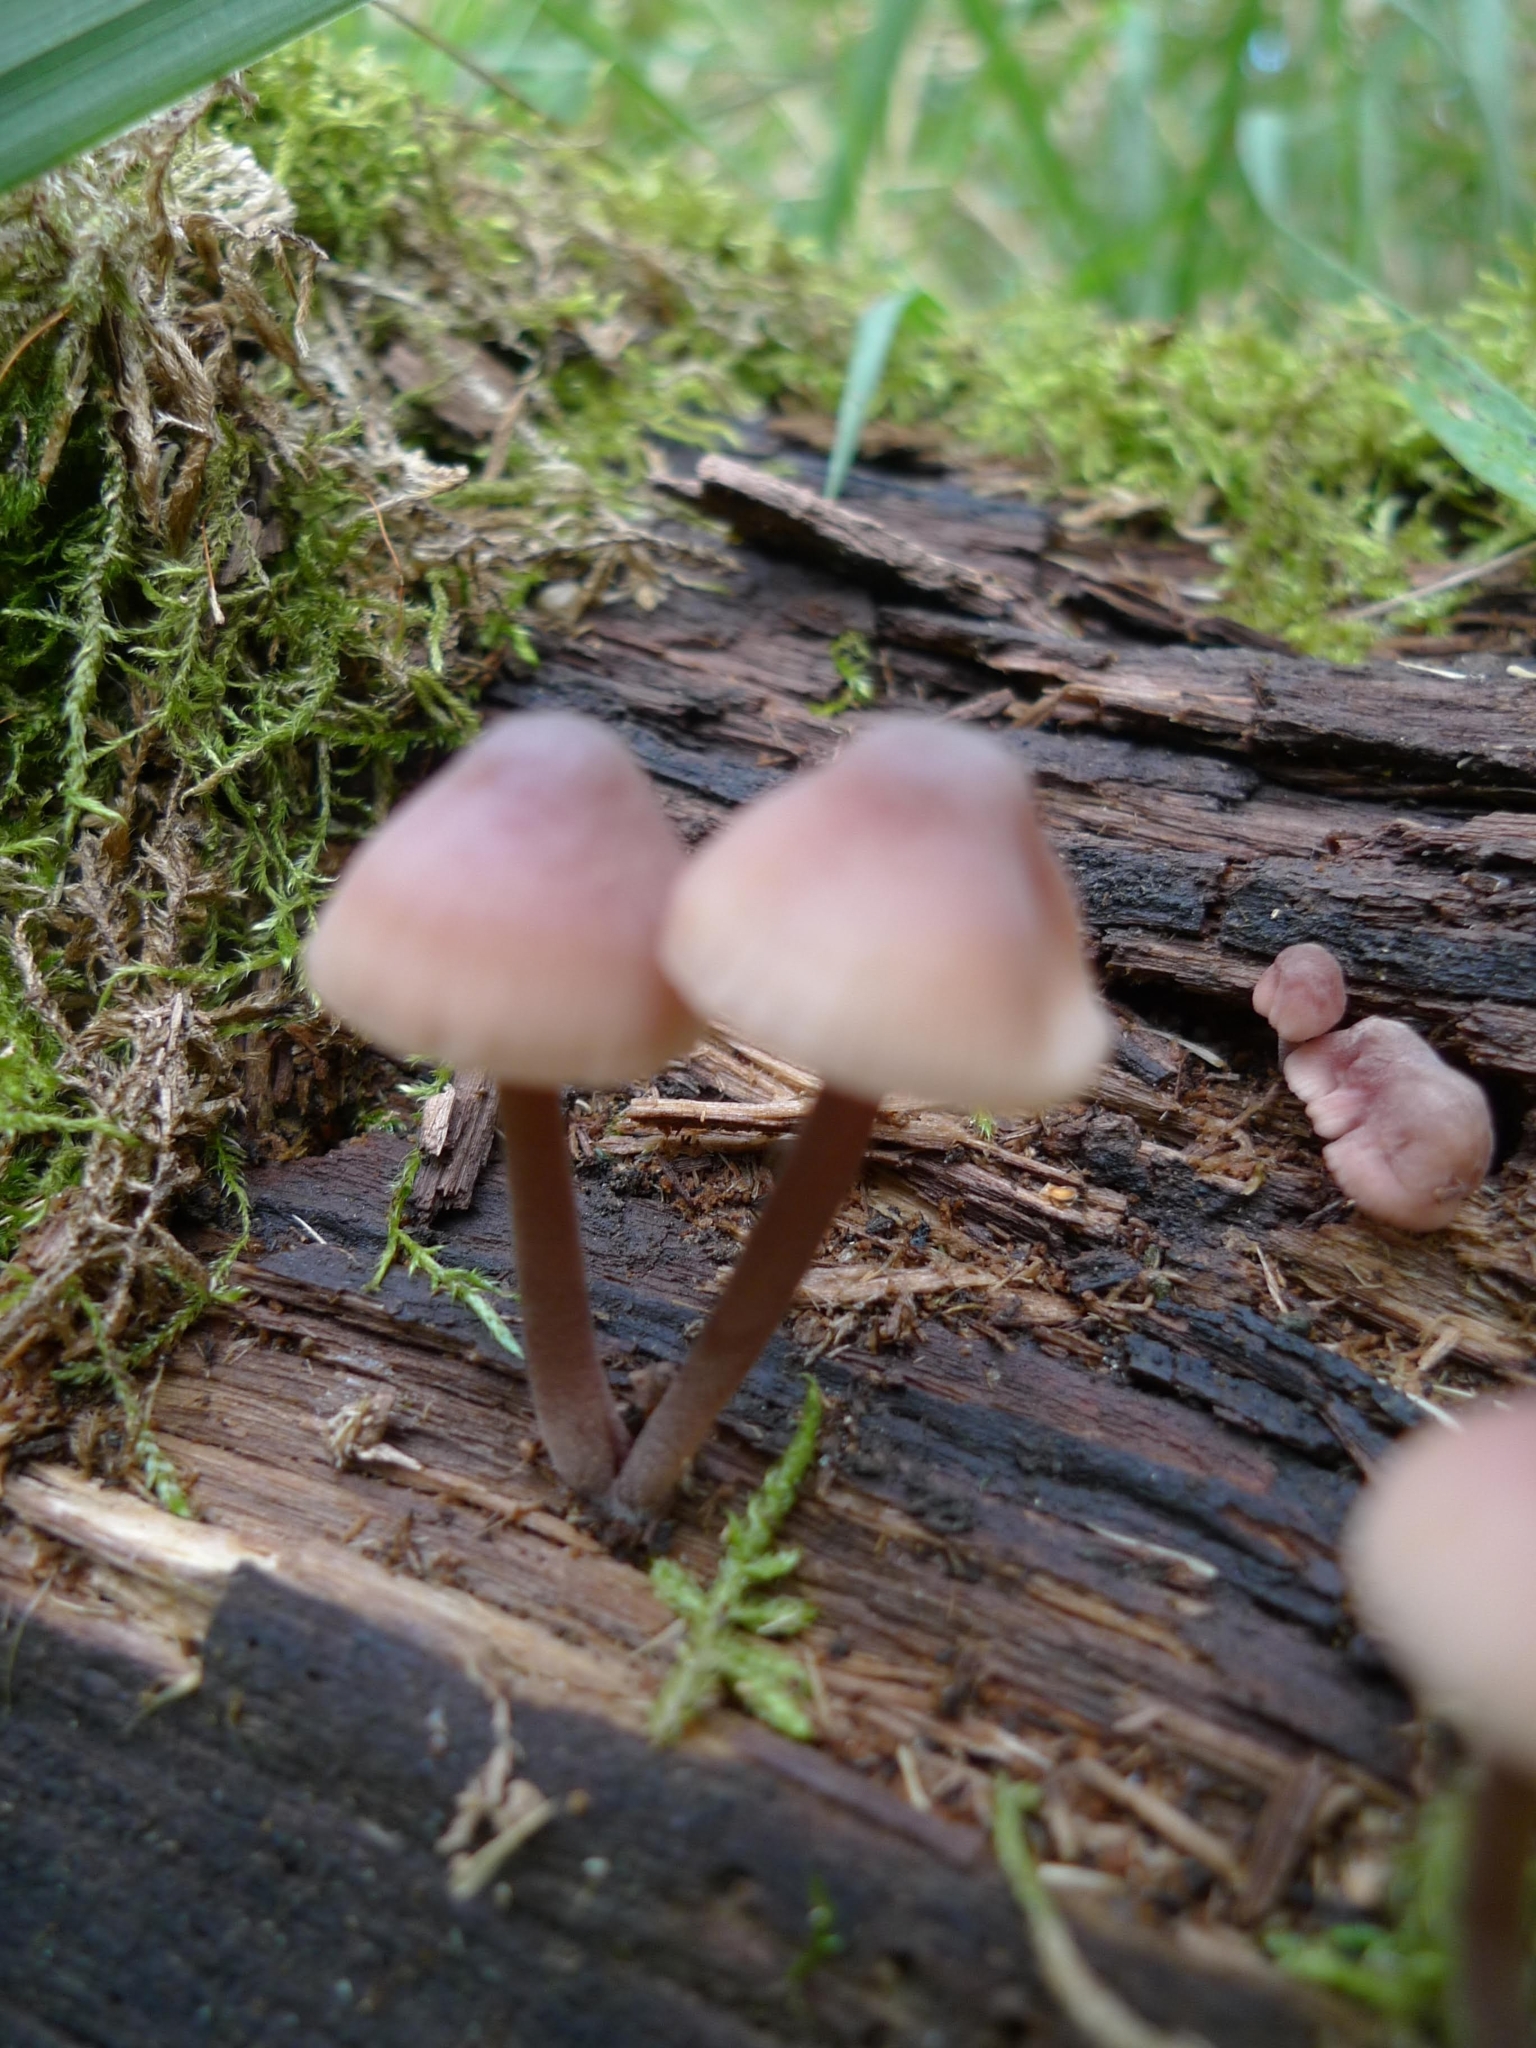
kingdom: Fungi
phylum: Basidiomycota
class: Agaricomycetes
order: Agaricales
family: Mycenaceae
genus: Mycena
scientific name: Mycena haematopus
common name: Burgundydrop bonnet
